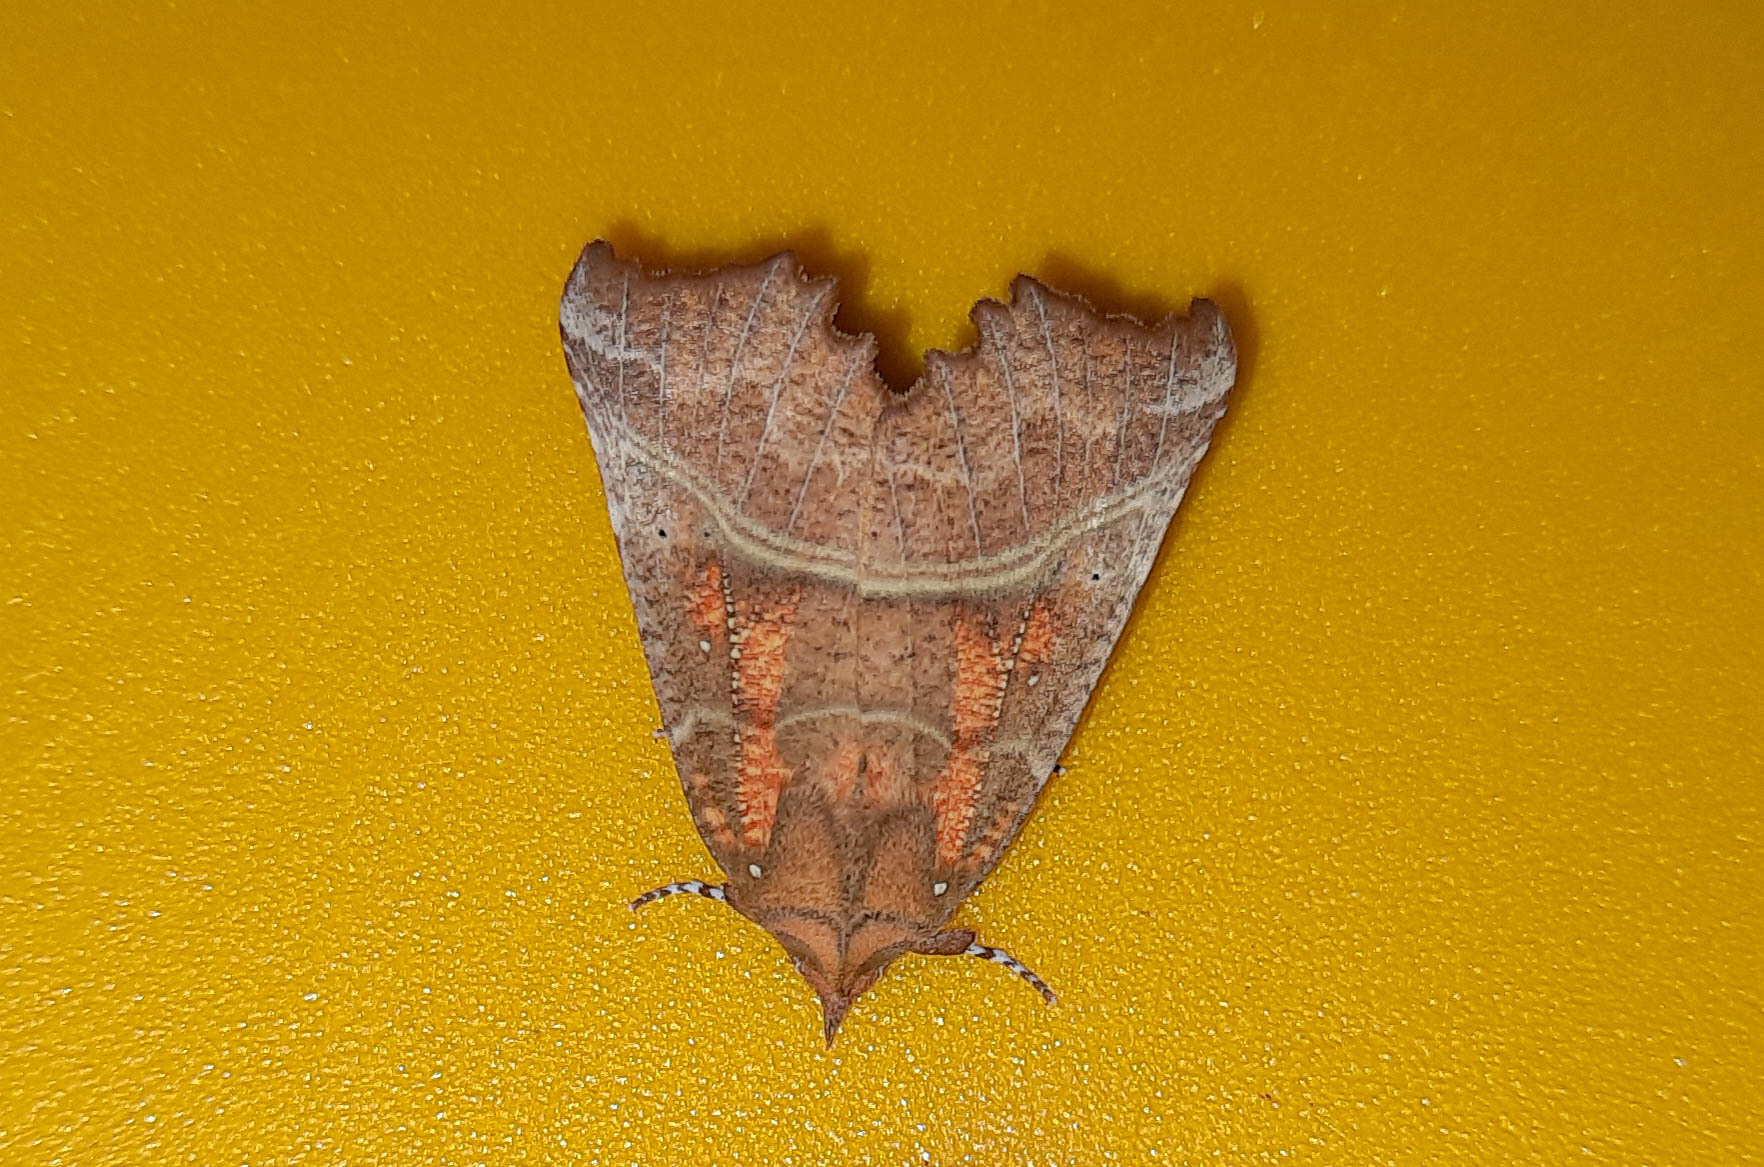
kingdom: Animalia
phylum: Arthropoda
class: Insecta
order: Lepidoptera
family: Erebidae
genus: Scoliopteryx
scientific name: Scoliopteryx libatrix
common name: Herald
